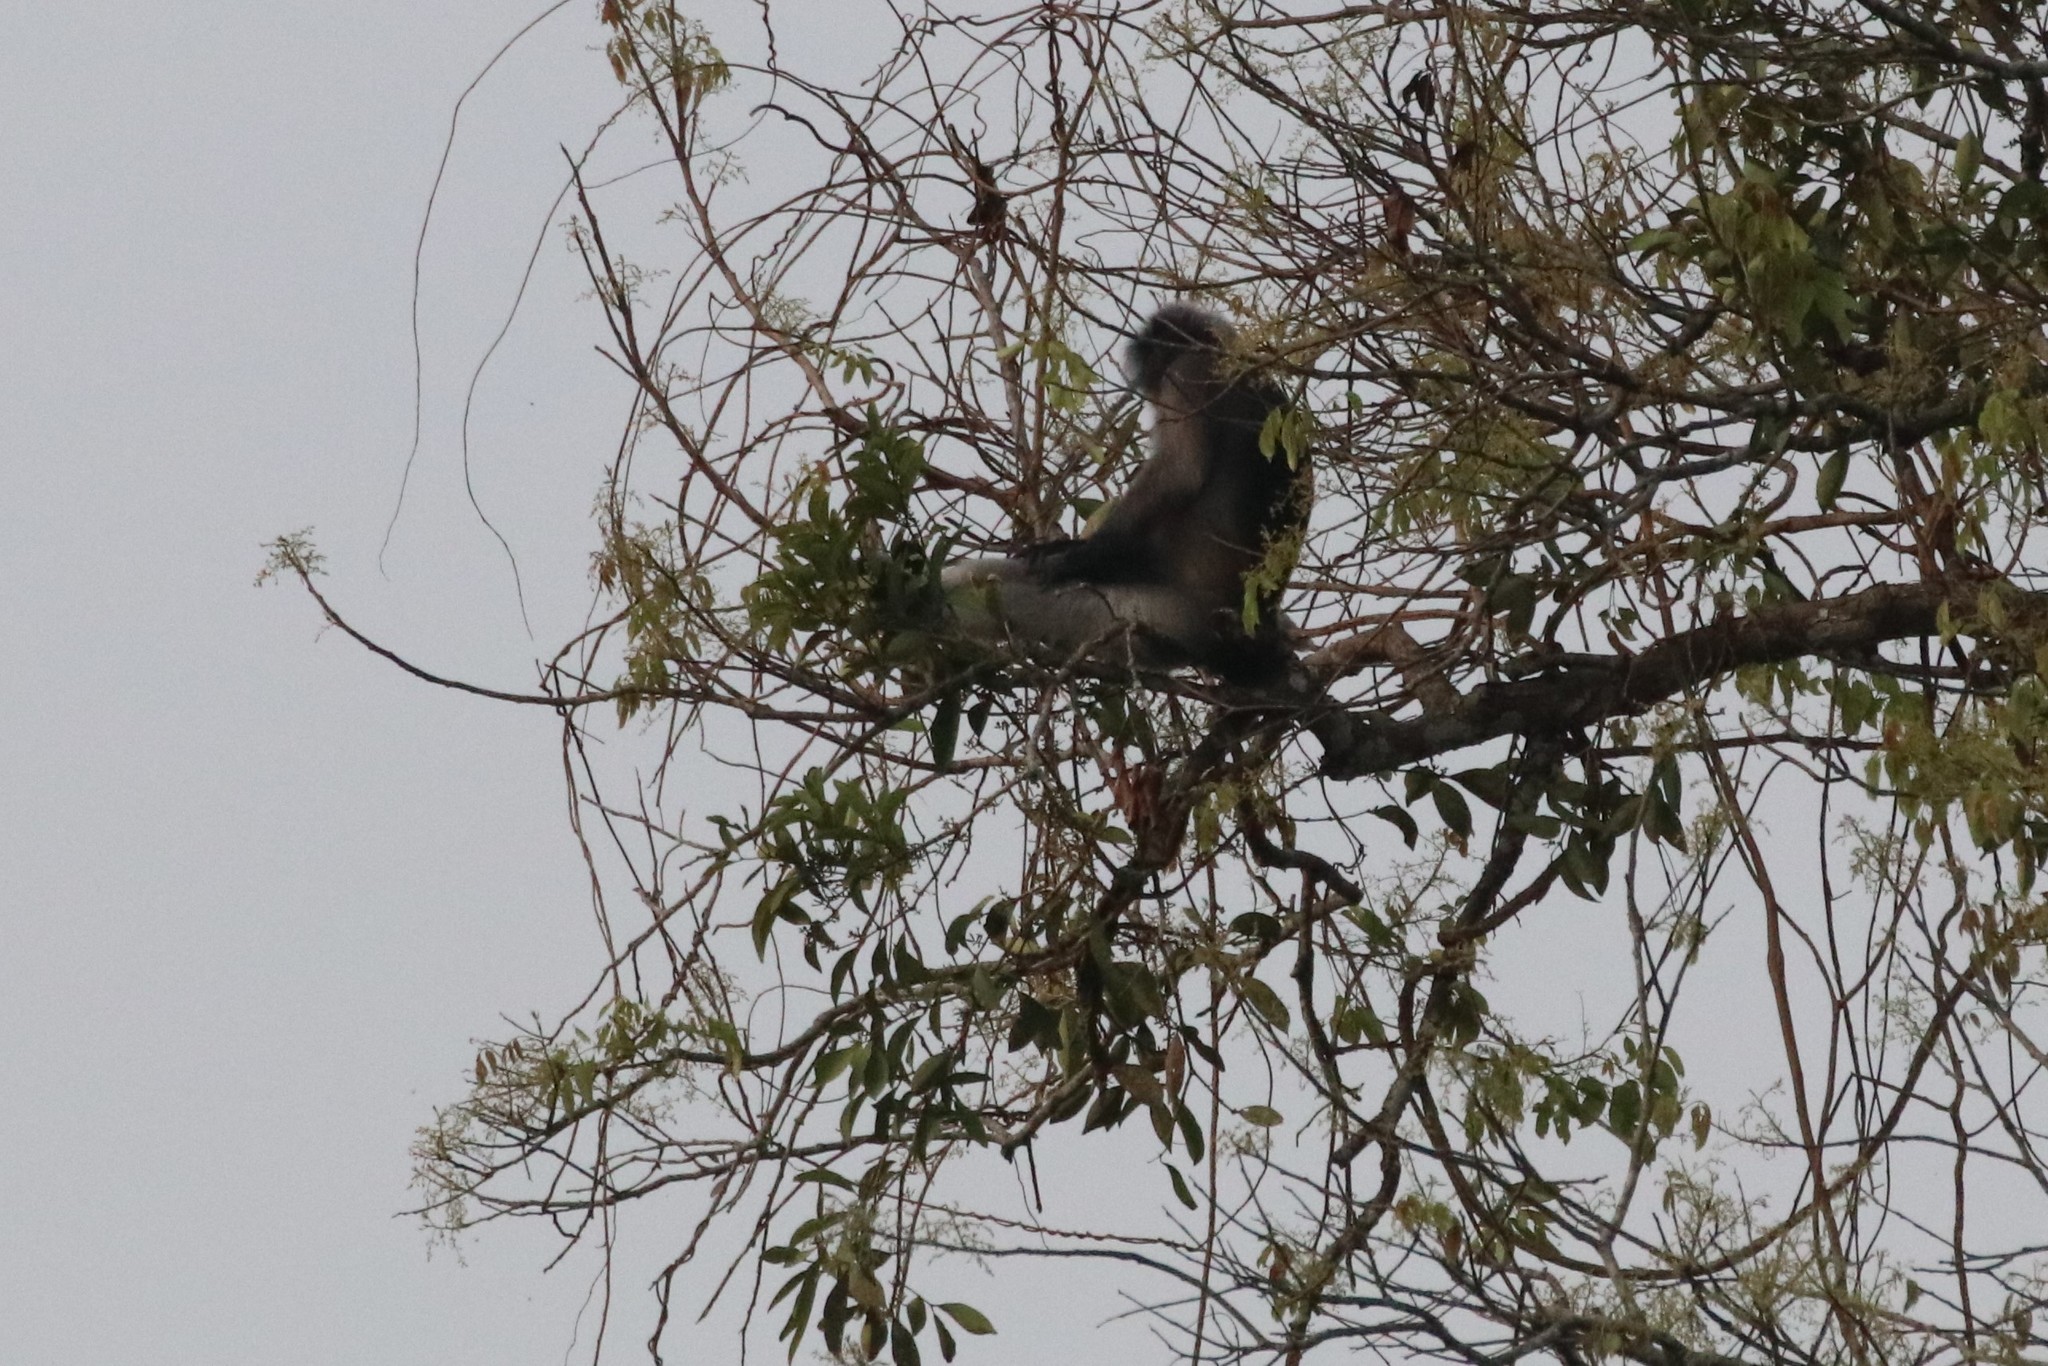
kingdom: Animalia
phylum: Chordata
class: Mammalia
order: Primates
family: Cercopithecidae
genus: Trachypithecus
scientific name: Trachypithecus obscurus
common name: Dusky leaf-monkey
